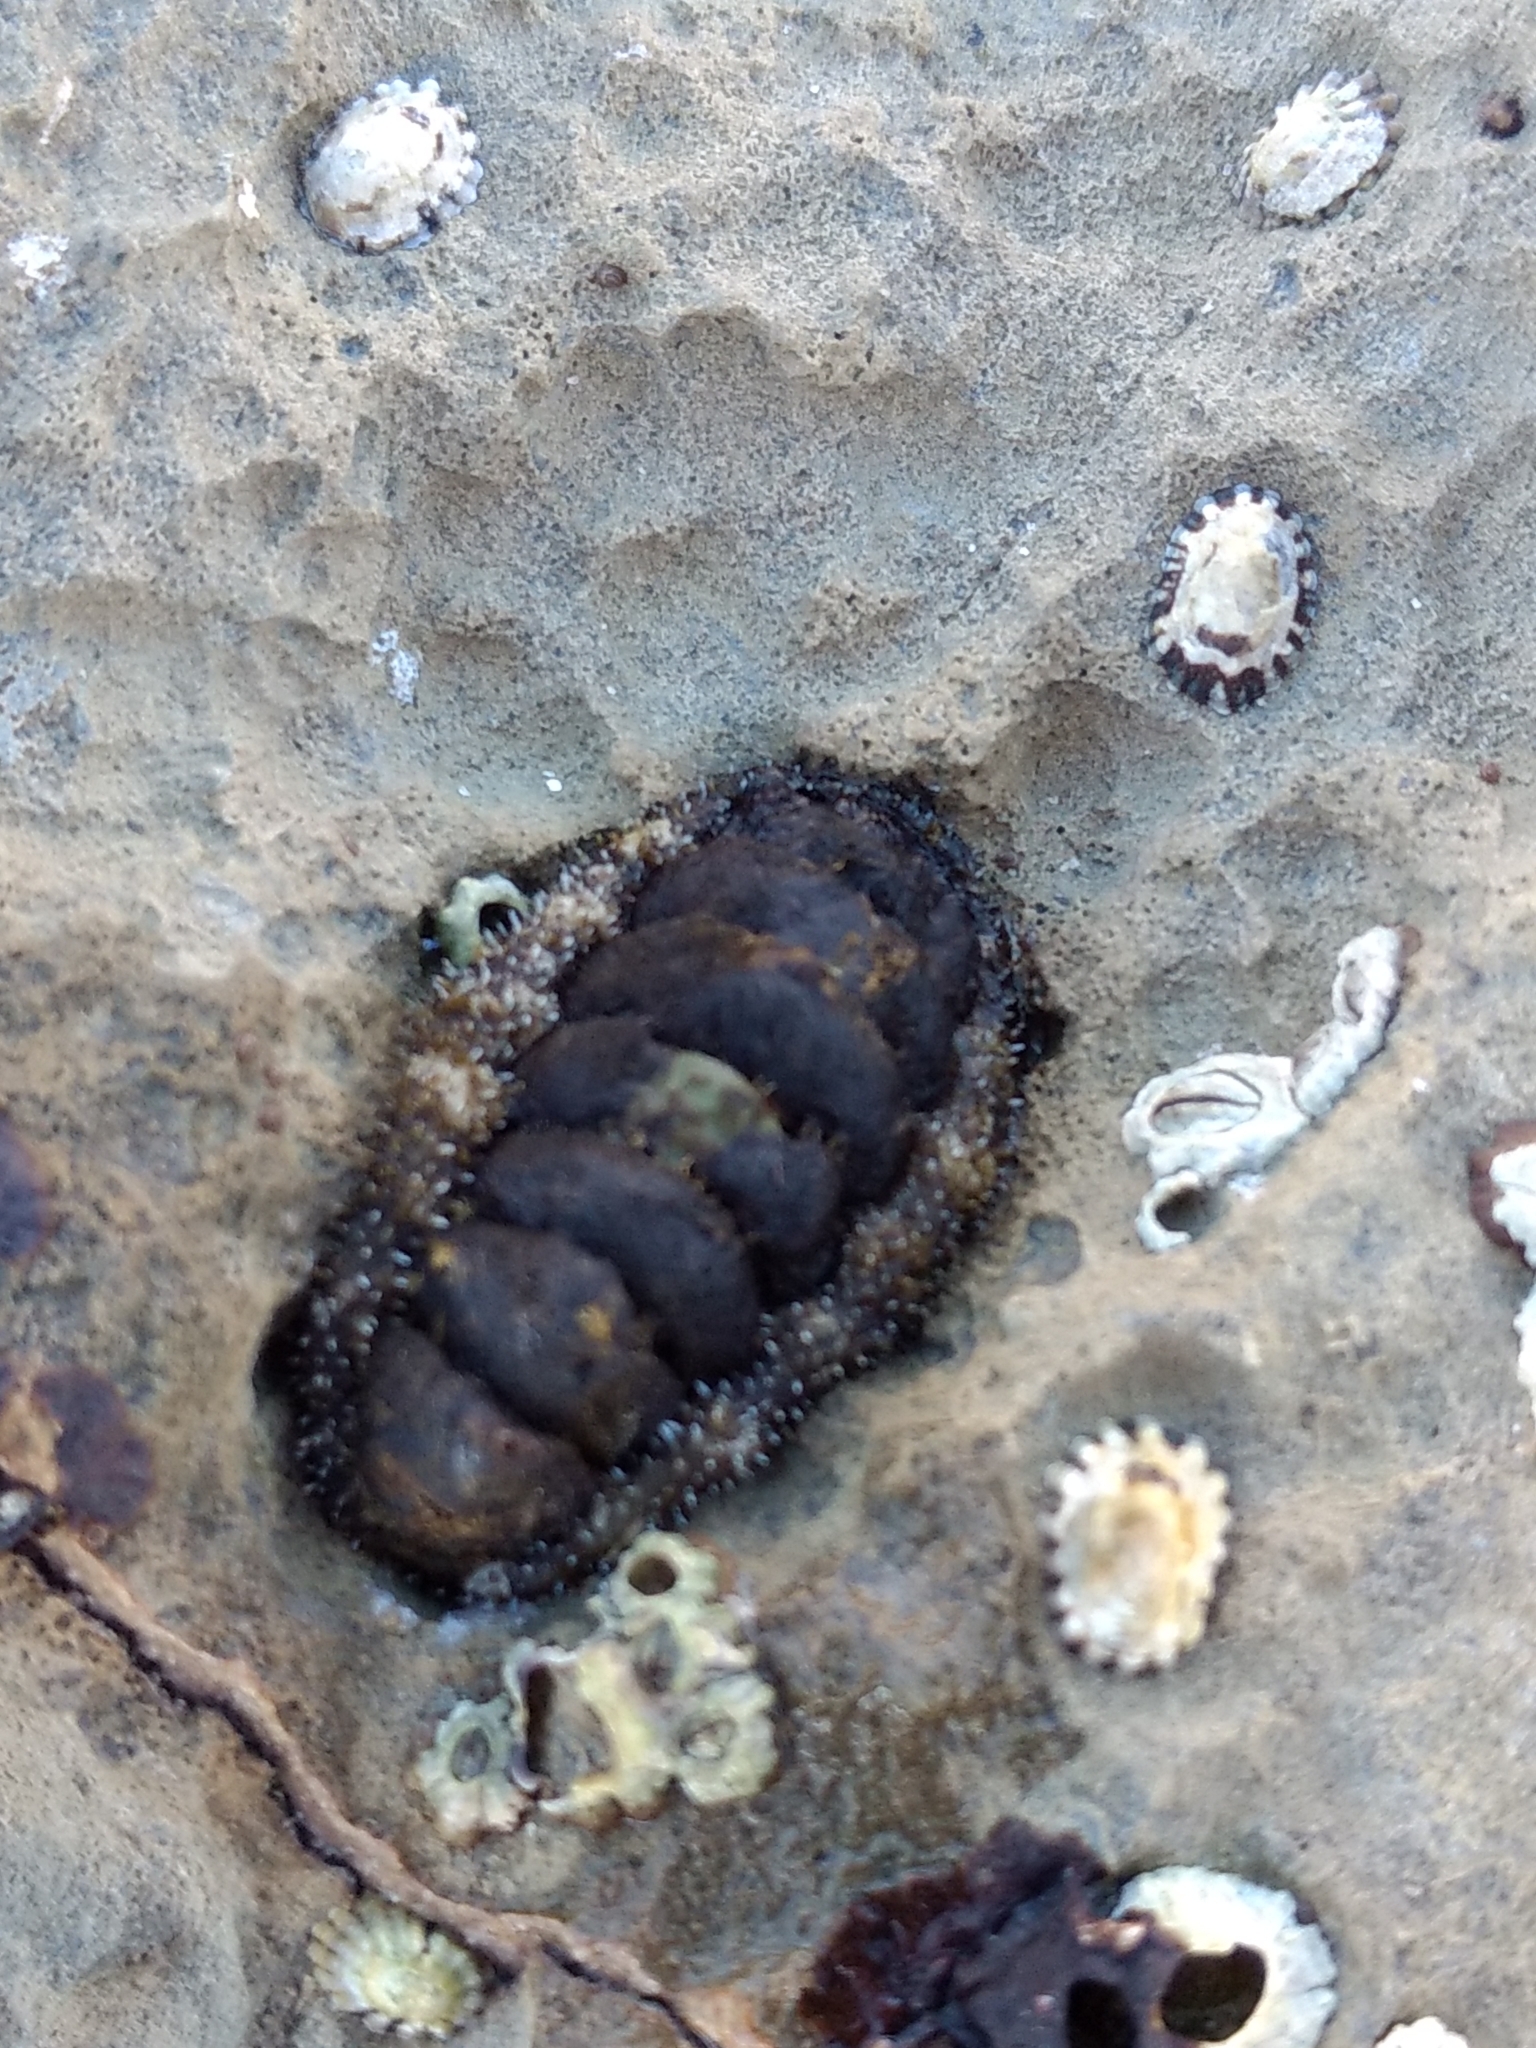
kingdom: Animalia
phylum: Mollusca
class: Polyplacophora
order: Chitonida
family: Tonicellidae
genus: Nuttallina
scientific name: Nuttallina californica
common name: California nuttall chiton
